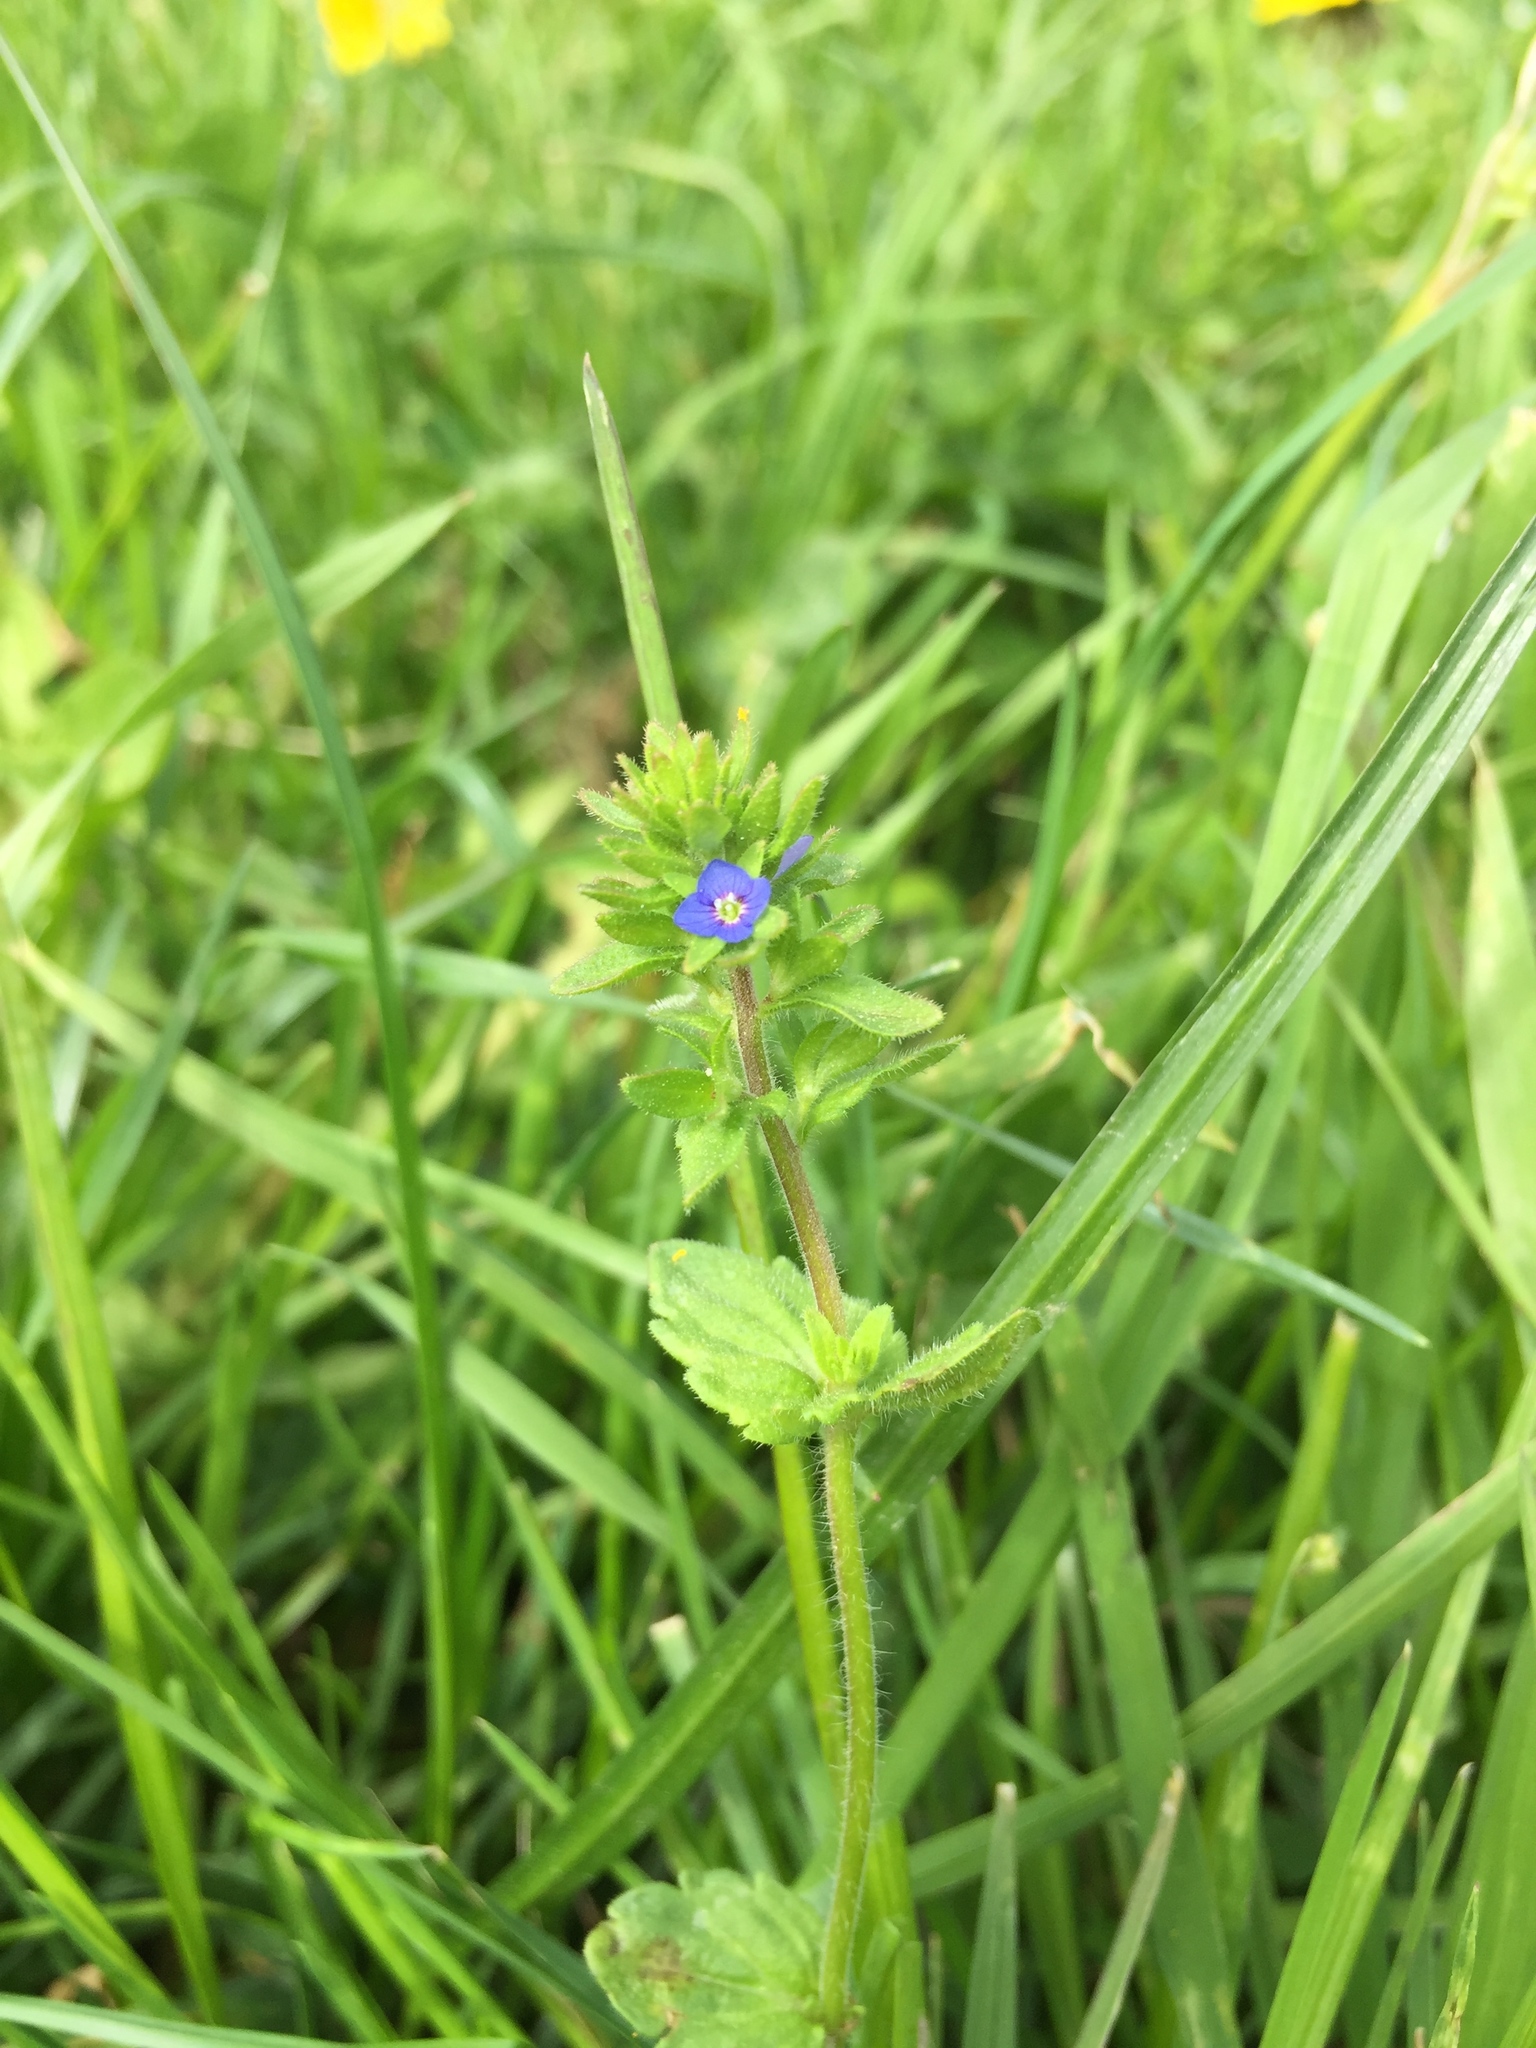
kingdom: Plantae
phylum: Tracheophyta
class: Magnoliopsida
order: Lamiales
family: Plantaginaceae
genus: Veronica
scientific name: Veronica arvensis
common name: Corn speedwell
